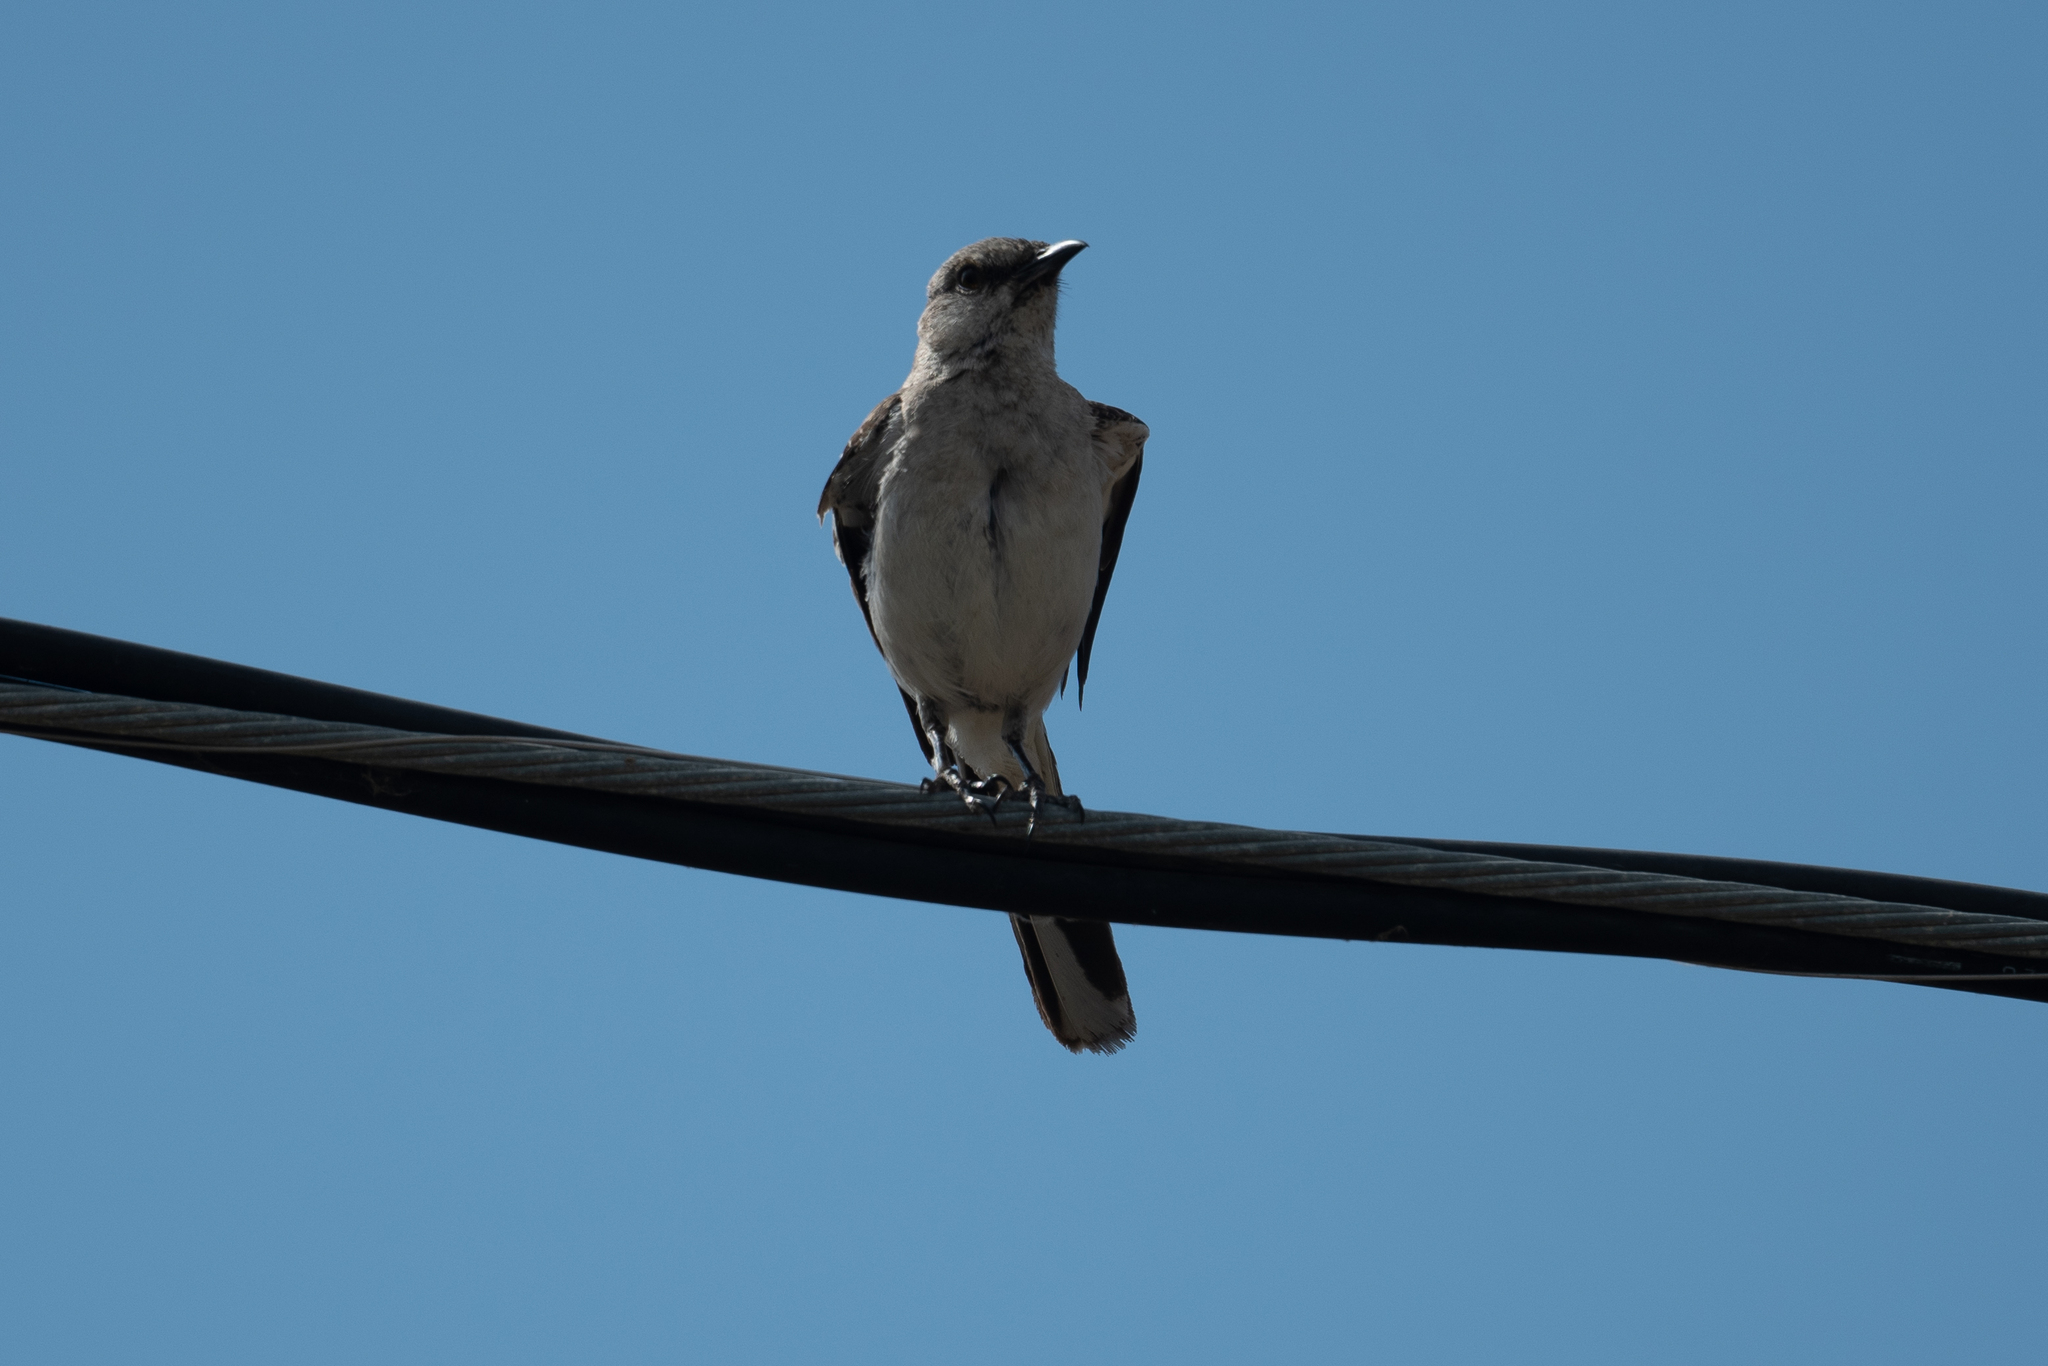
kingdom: Animalia
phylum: Chordata
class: Aves
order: Passeriformes
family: Mimidae
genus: Mimus
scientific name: Mimus polyglottos
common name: Northern mockingbird
